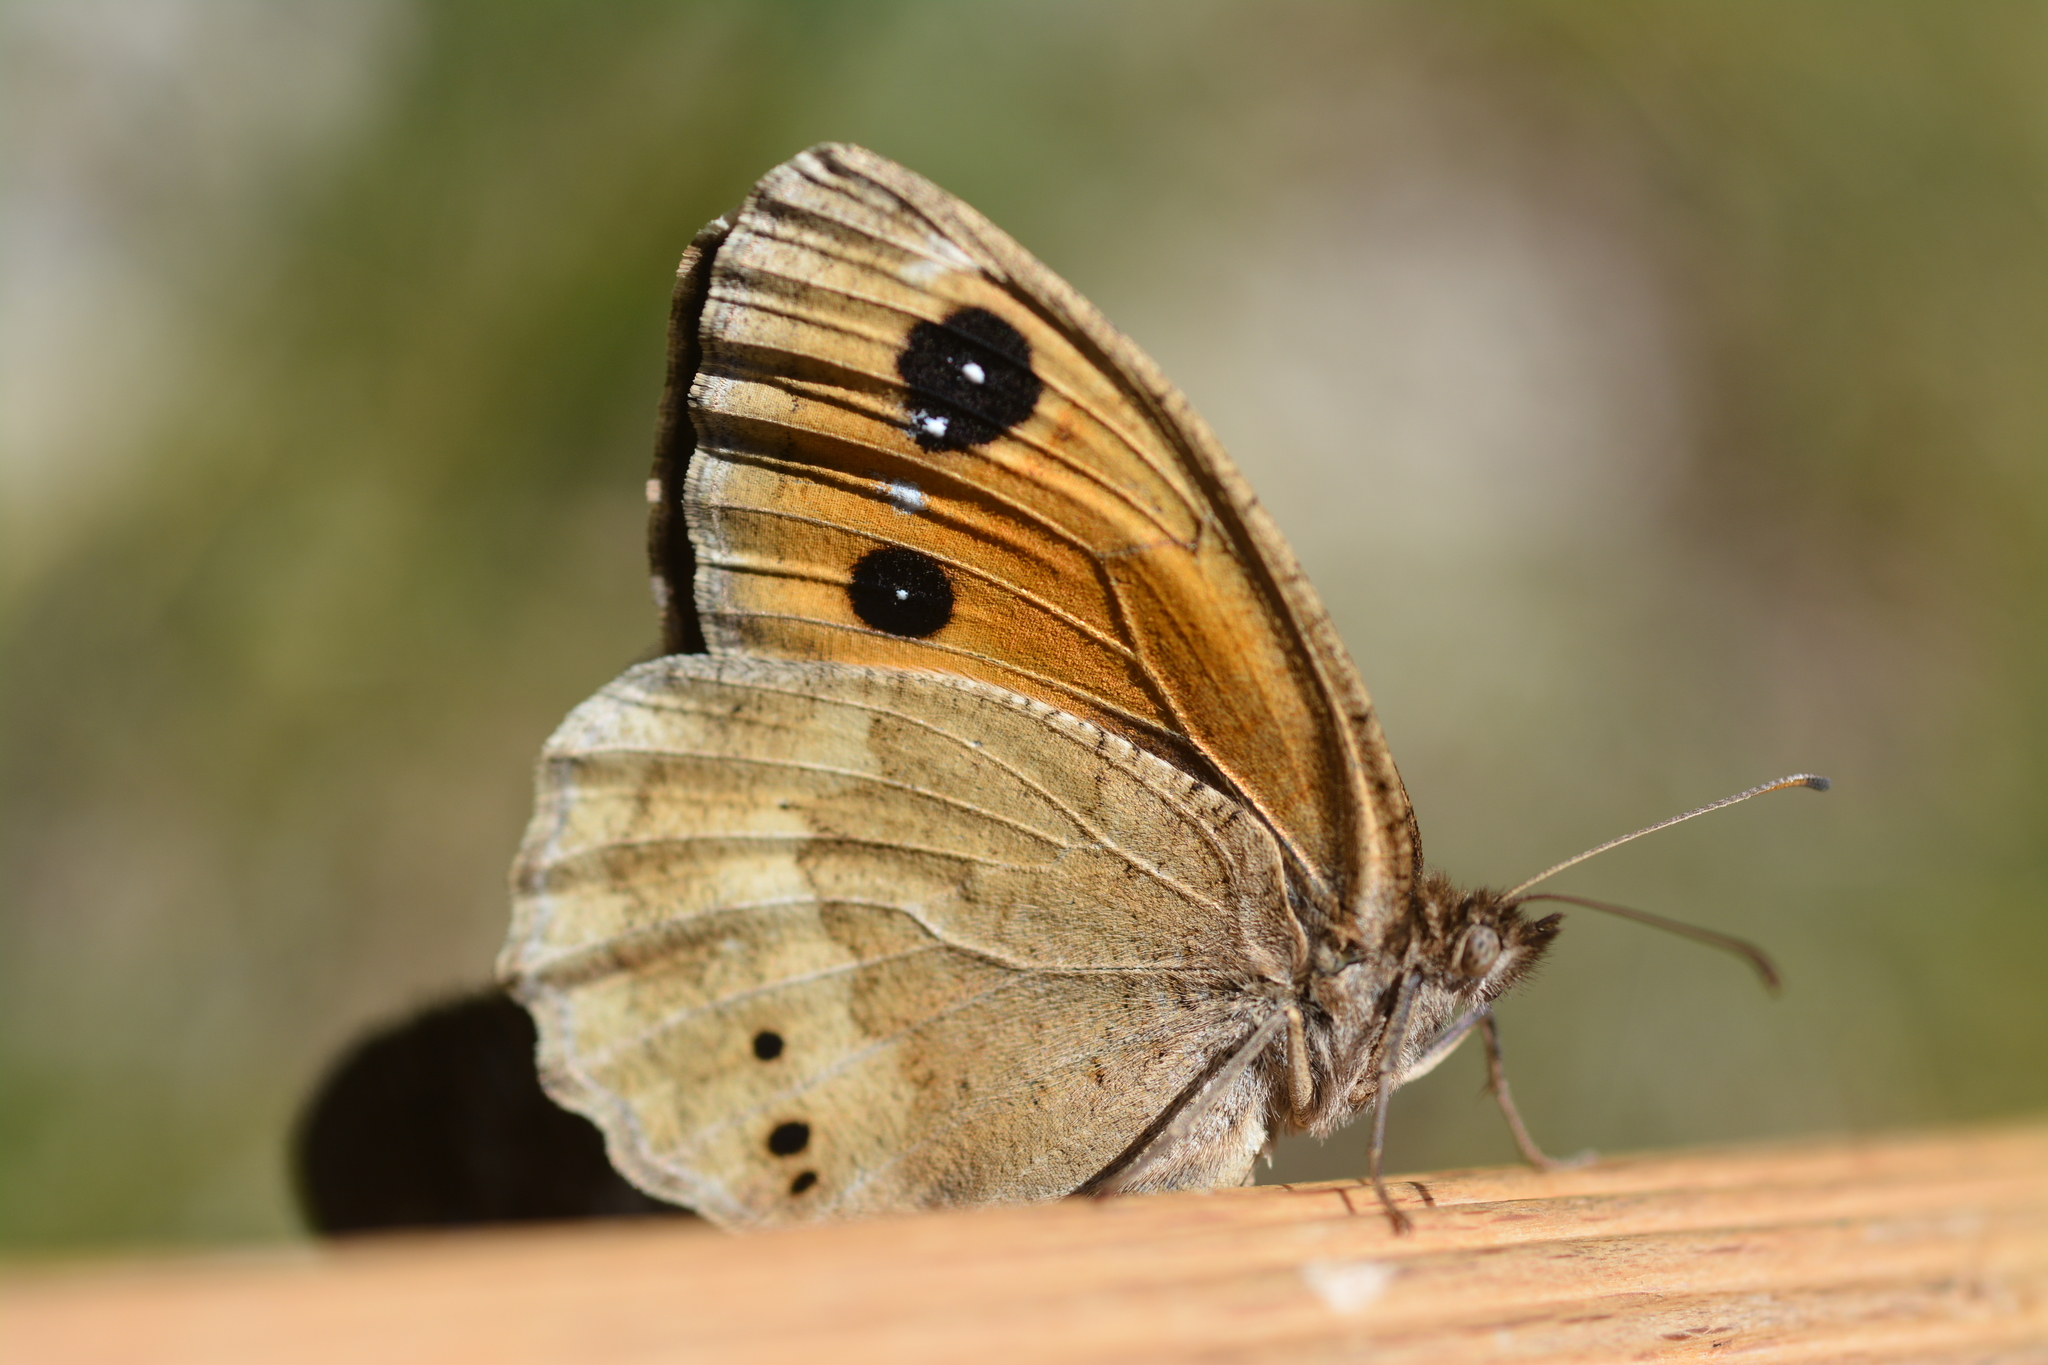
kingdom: Animalia
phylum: Arthropoda
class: Insecta
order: Lepidoptera
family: Nymphalidae
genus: Satyrus
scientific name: Satyrus ferula
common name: Great sooty satyr
